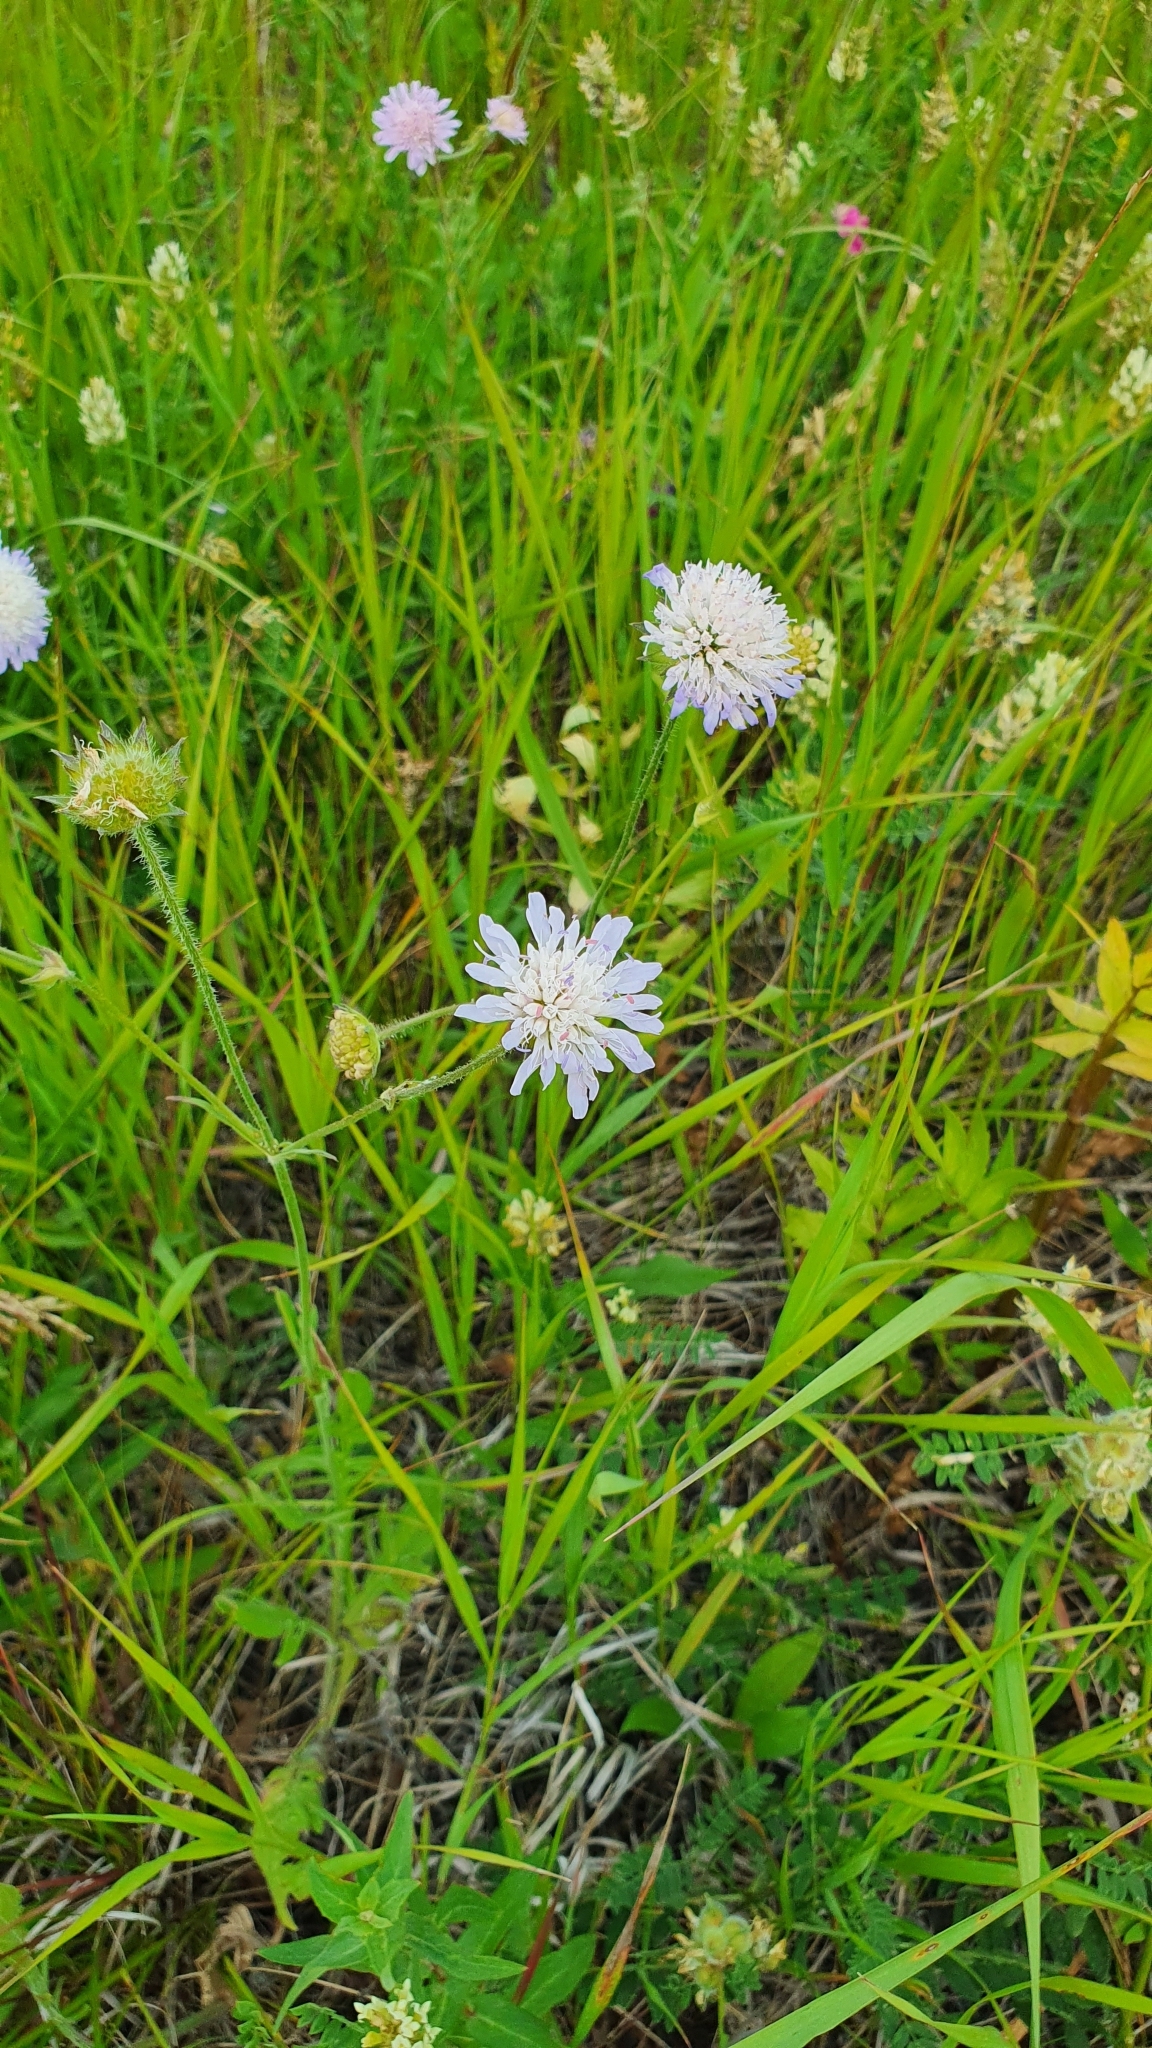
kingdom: Plantae
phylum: Tracheophyta
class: Magnoliopsida
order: Dipsacales
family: Caprifoliaceae
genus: Knautia
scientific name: Knautia arvensis
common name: Field scabiosa
